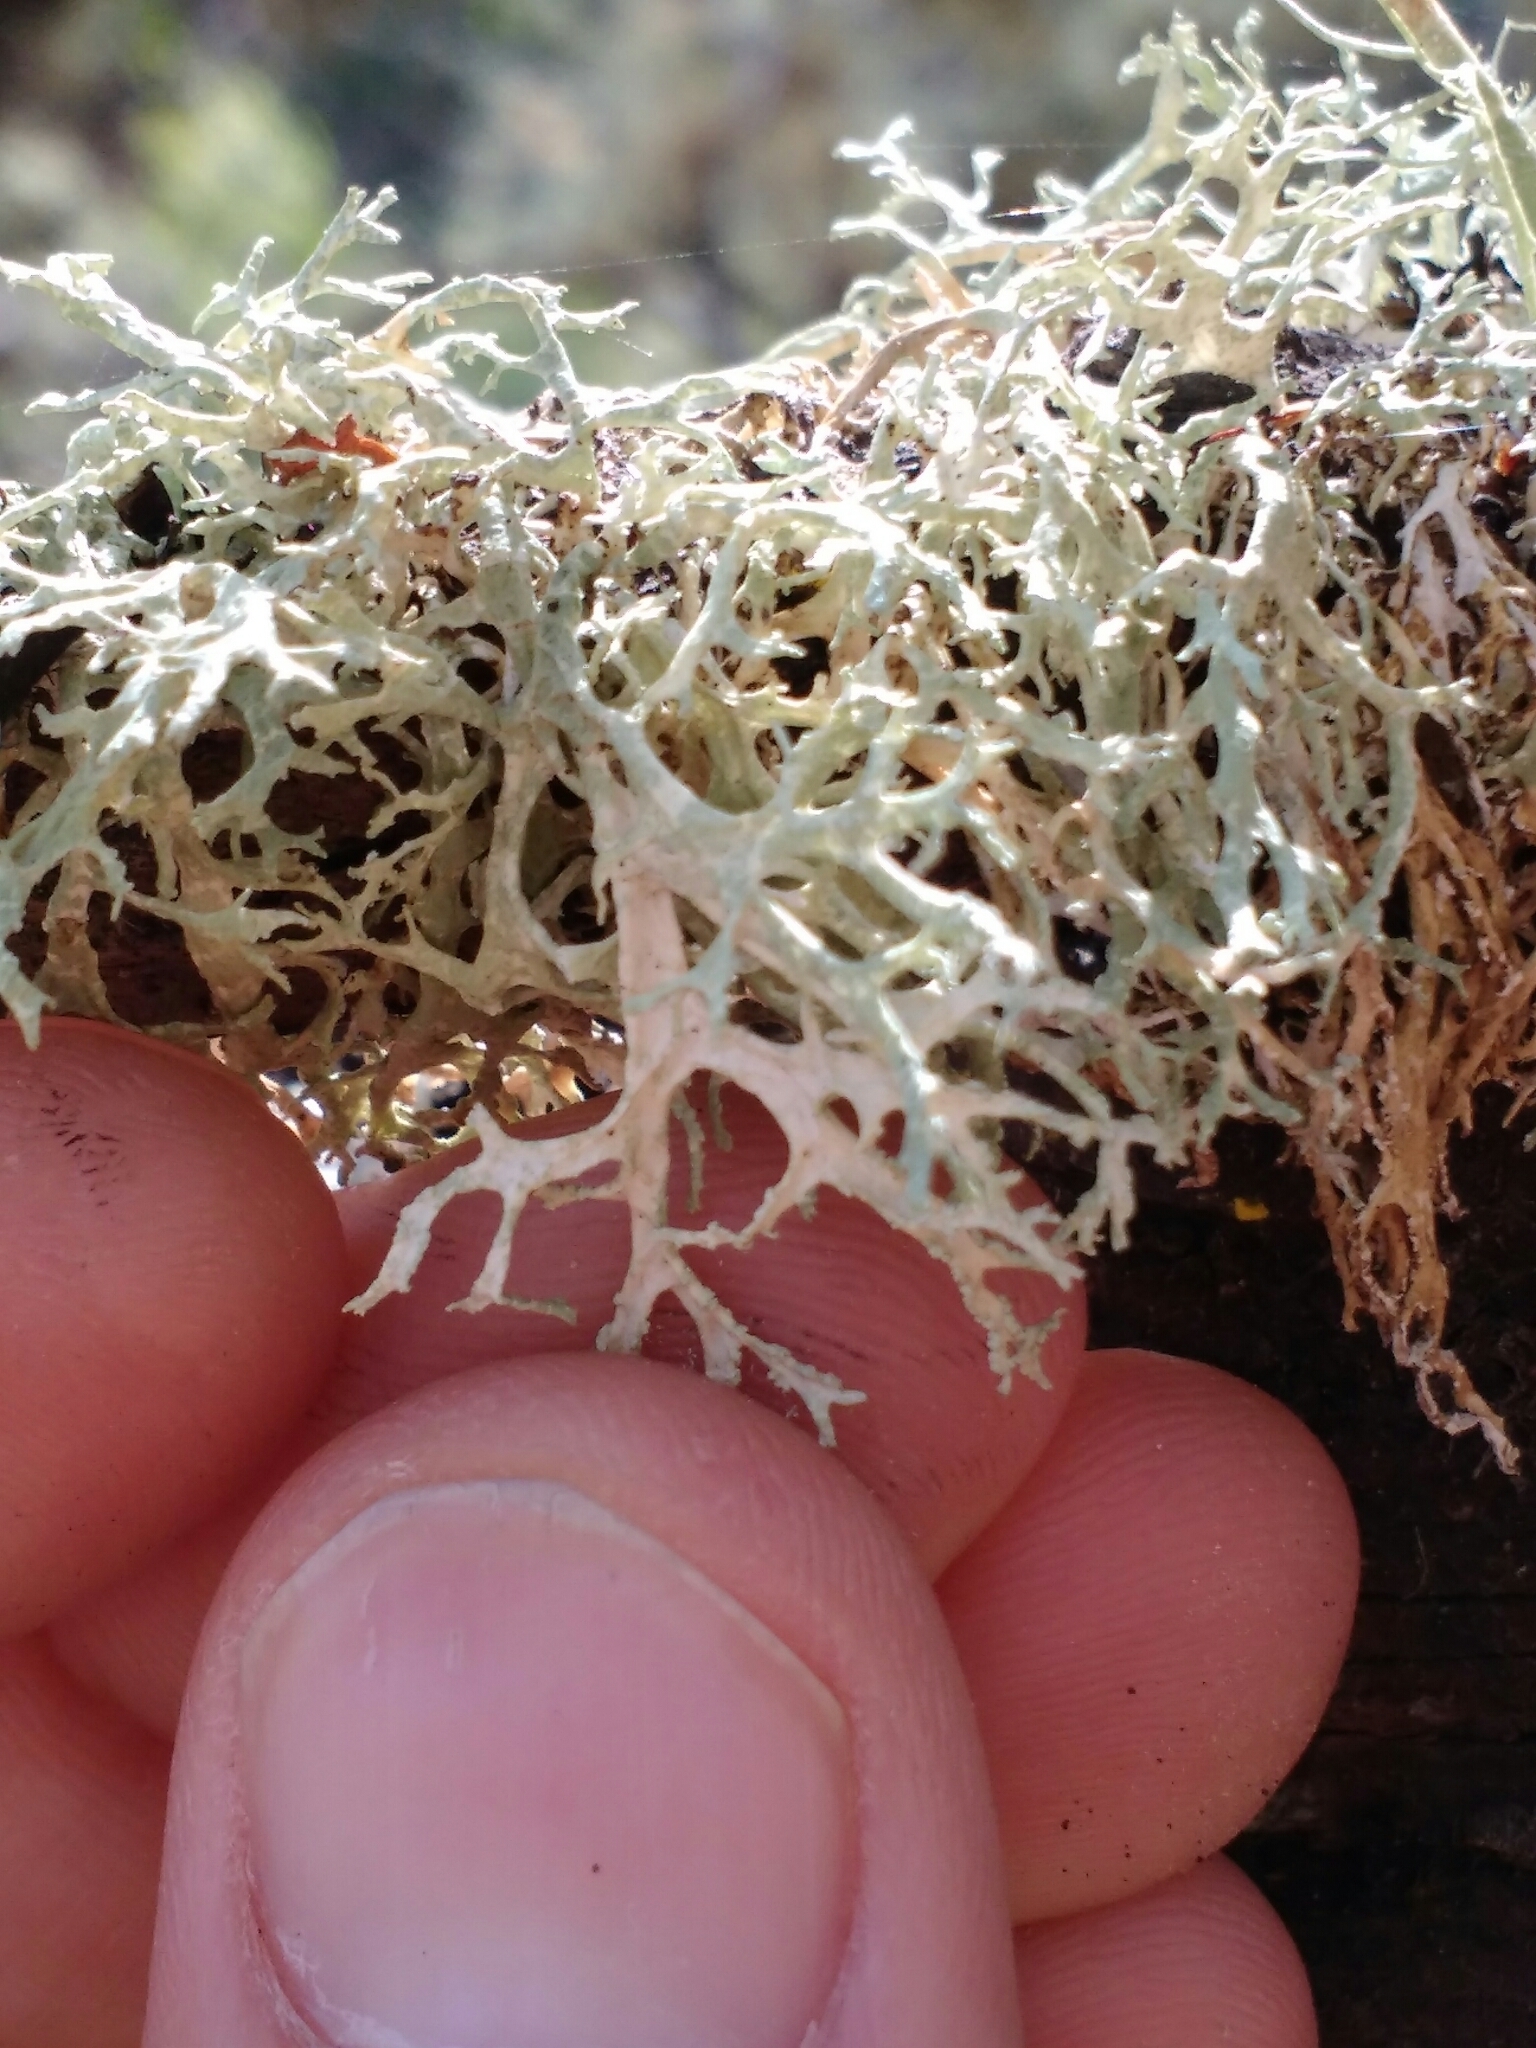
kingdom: Fungi
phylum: Ascomycota
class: Lecanoromycetes
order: Lecanorales
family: Parmeliaceae
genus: Evernia
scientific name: Evernia prunastri
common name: Oak moss
